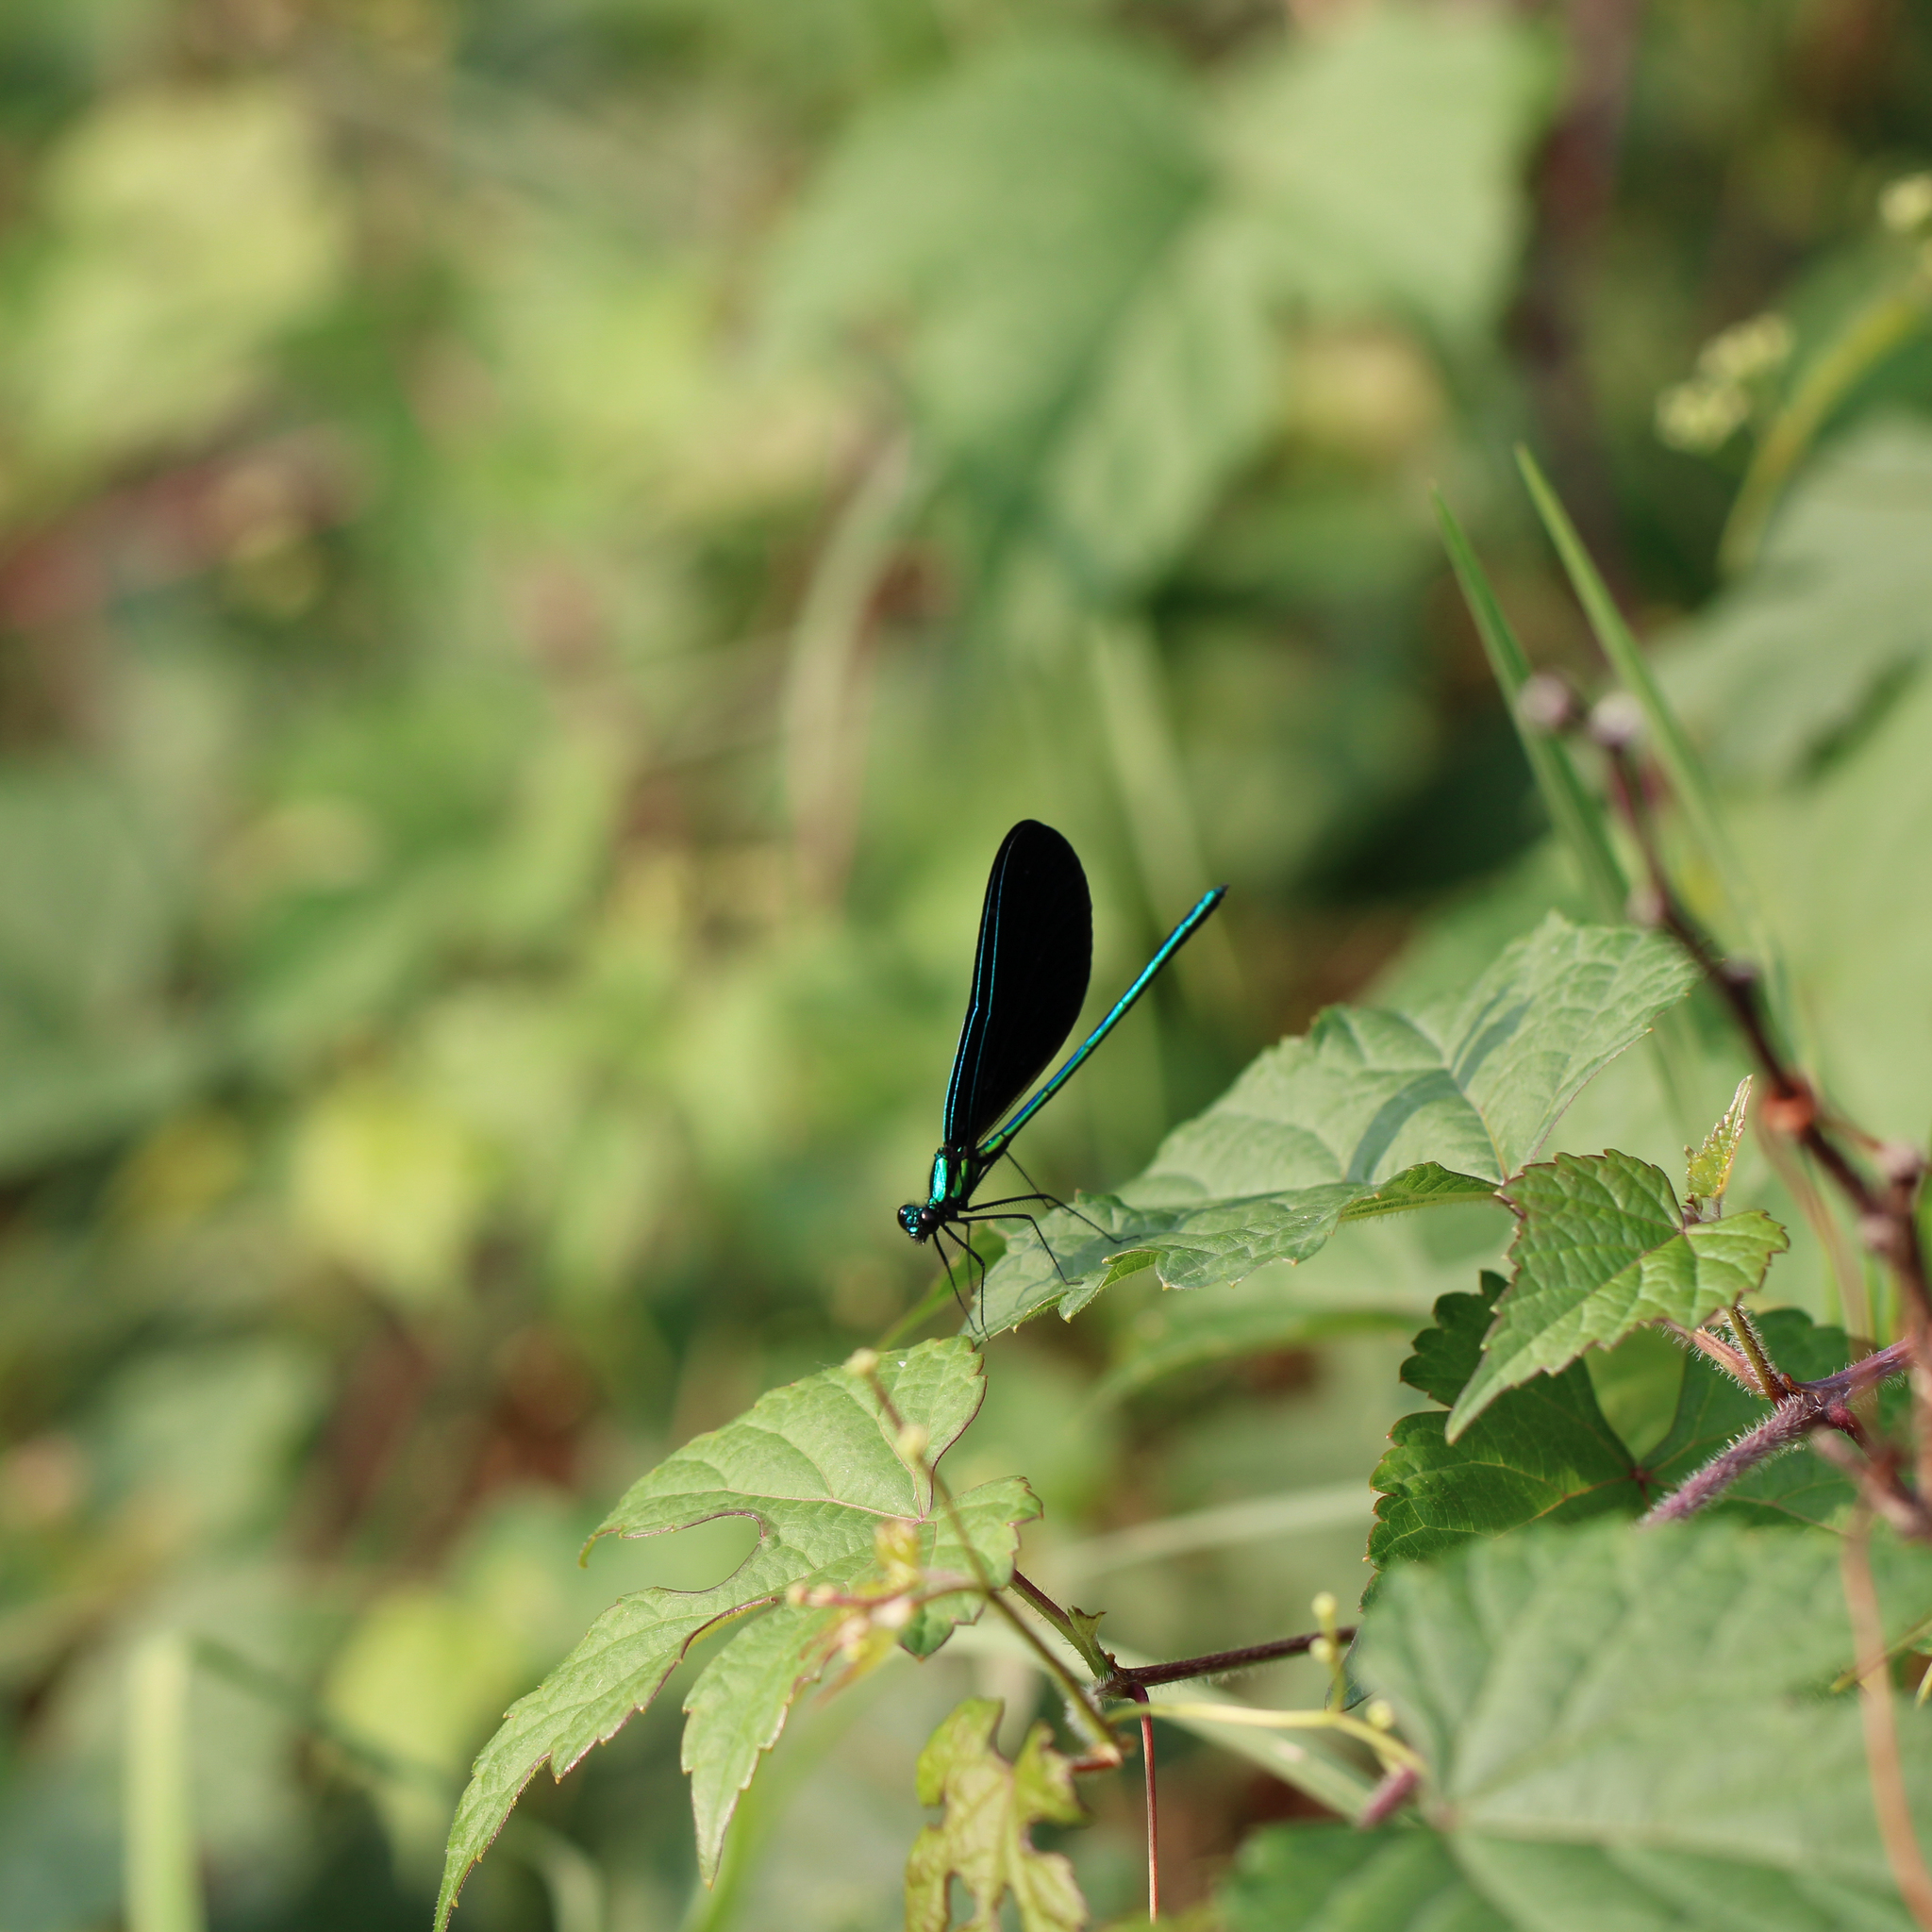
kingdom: Animalia
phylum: Arthropoda
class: Insecta
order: Odonata
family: Calopterygidae
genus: Calopteryx
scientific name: Calopteryx maculata
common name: Ebony jewelwing
